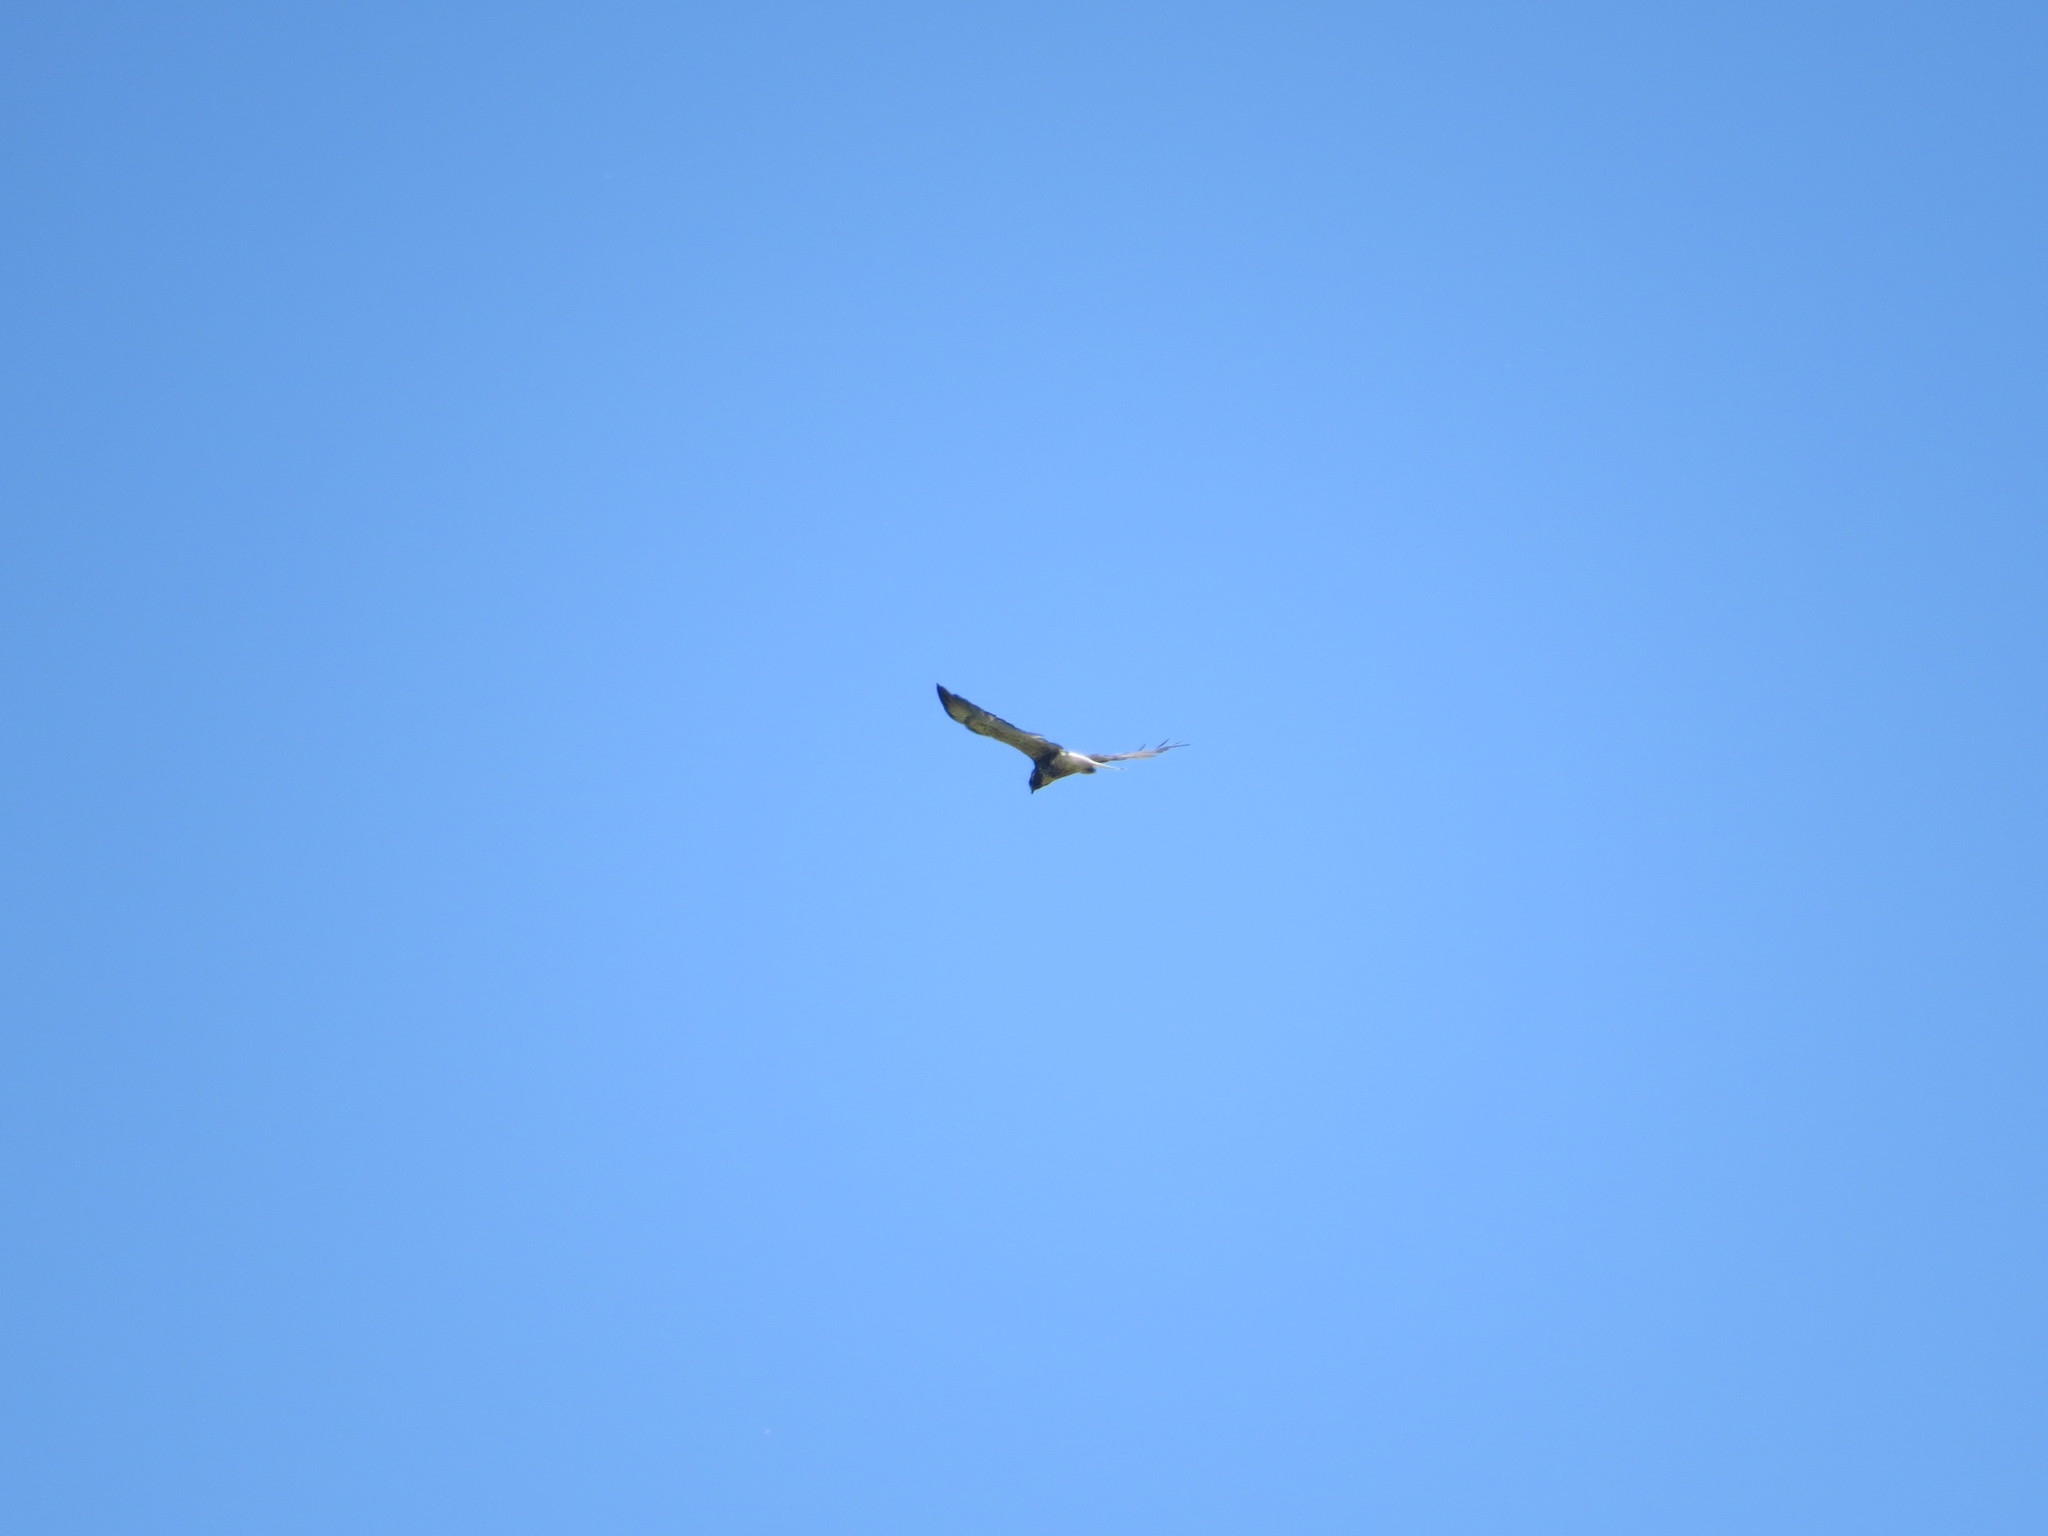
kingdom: Animalia
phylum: Chordata
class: Aves
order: Accipitriformes
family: Accipitridae
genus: Buteo
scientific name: Buteo albicaudatus
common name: White-tailed hawk
